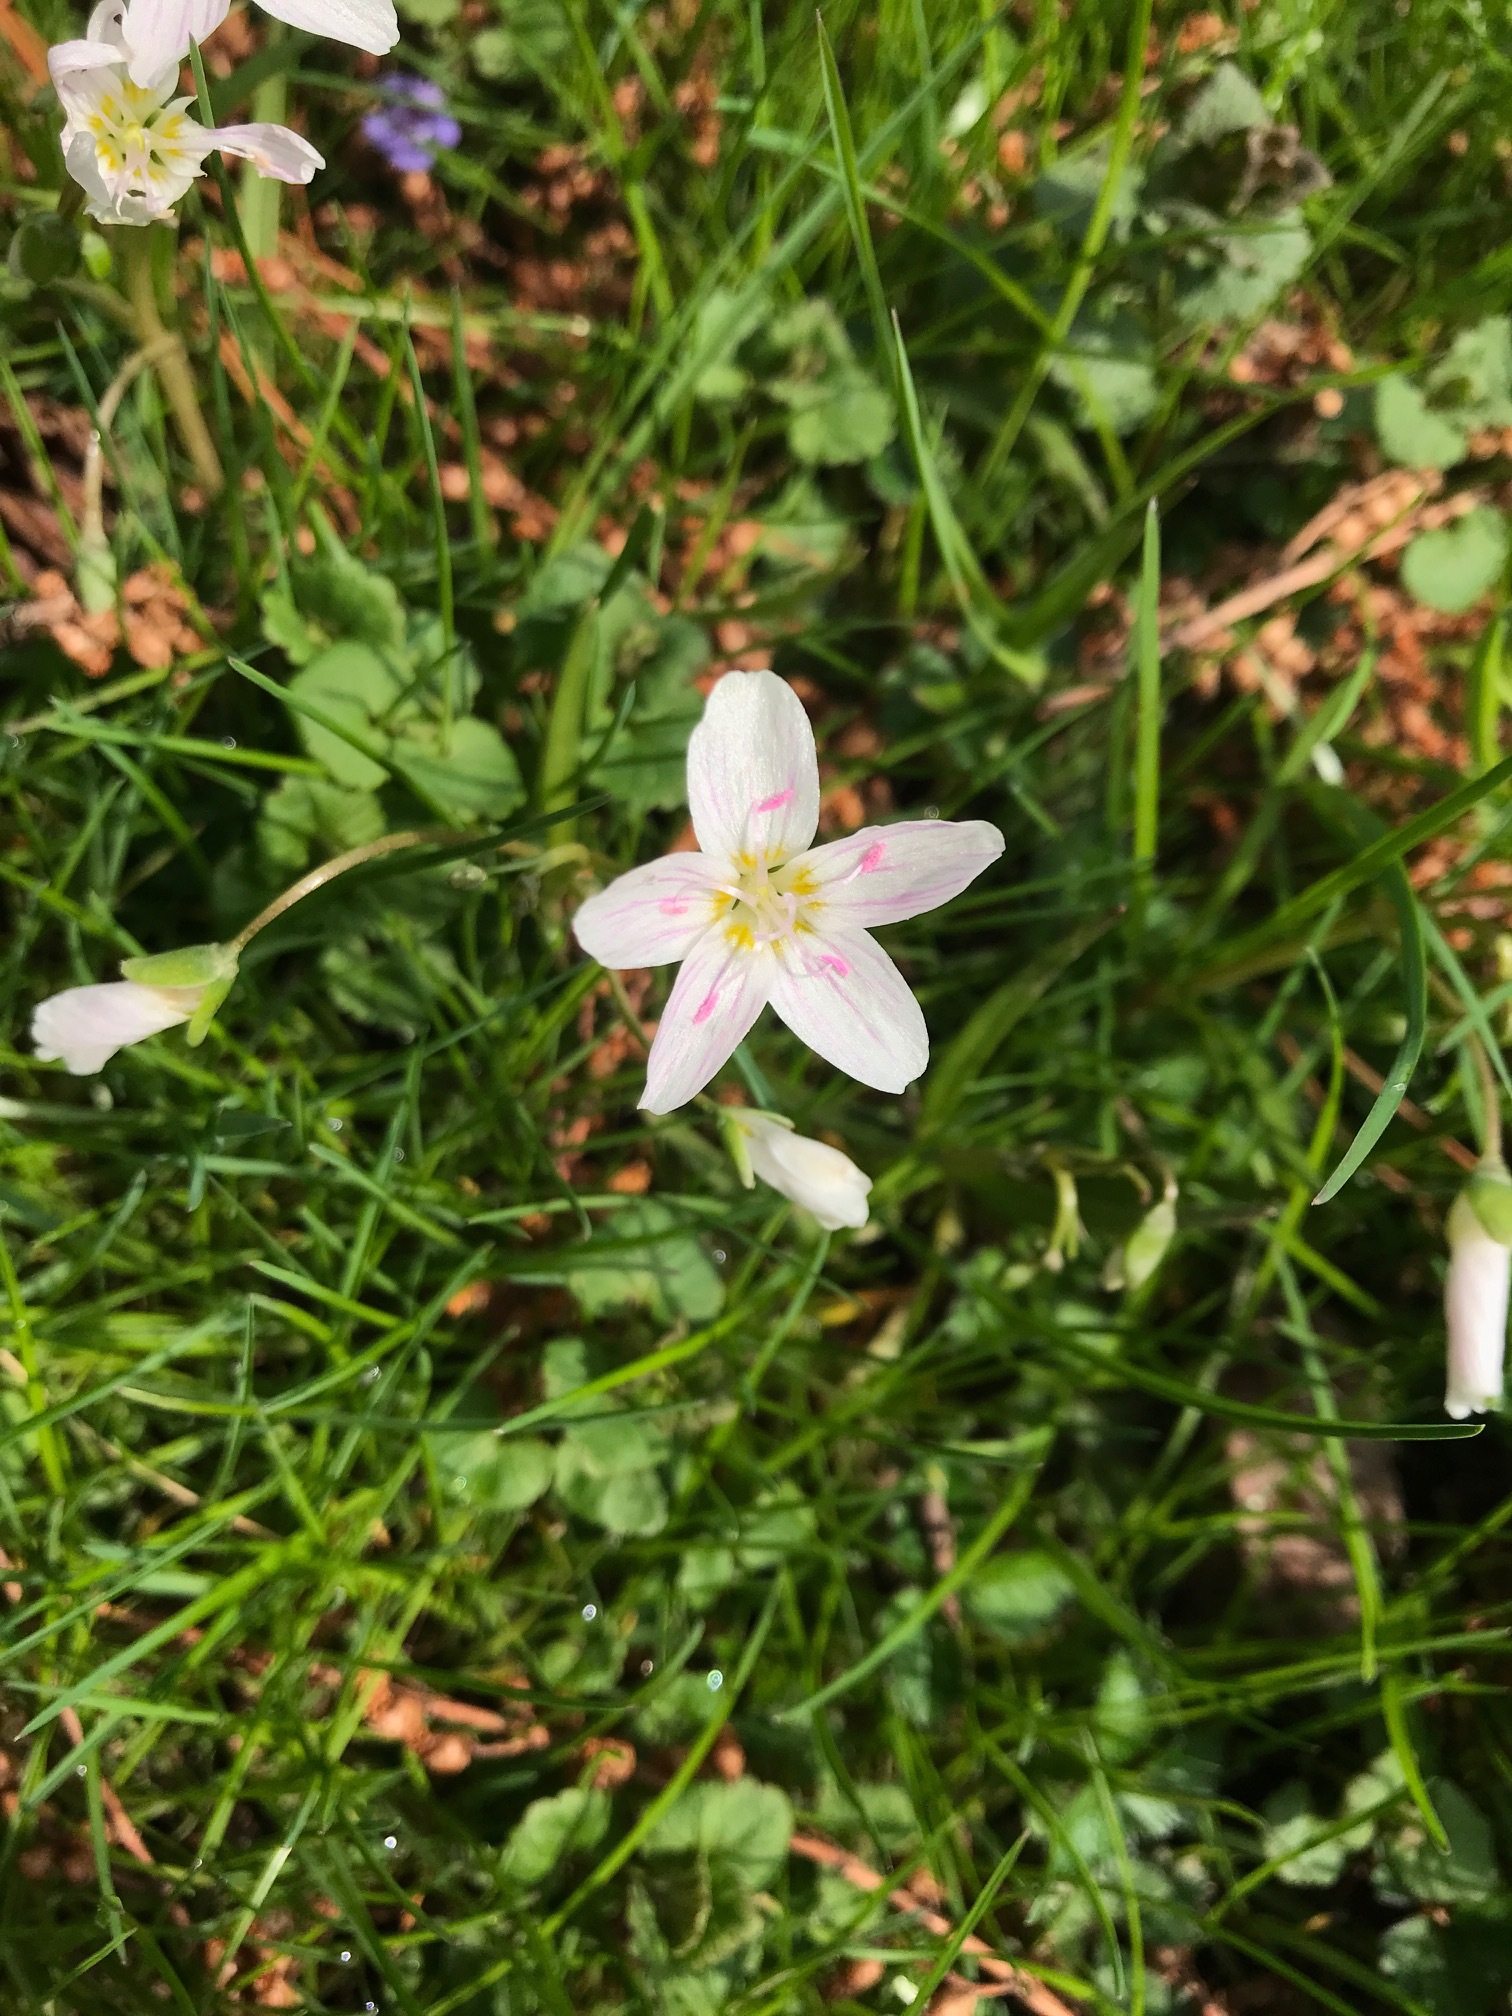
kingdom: Plantae
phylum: Tracheophyta
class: Magnoliopsida
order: Caryophyllales
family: Montiaceae
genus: Claytonia
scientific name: Claytonia virginica
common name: Virginia springbeauty
